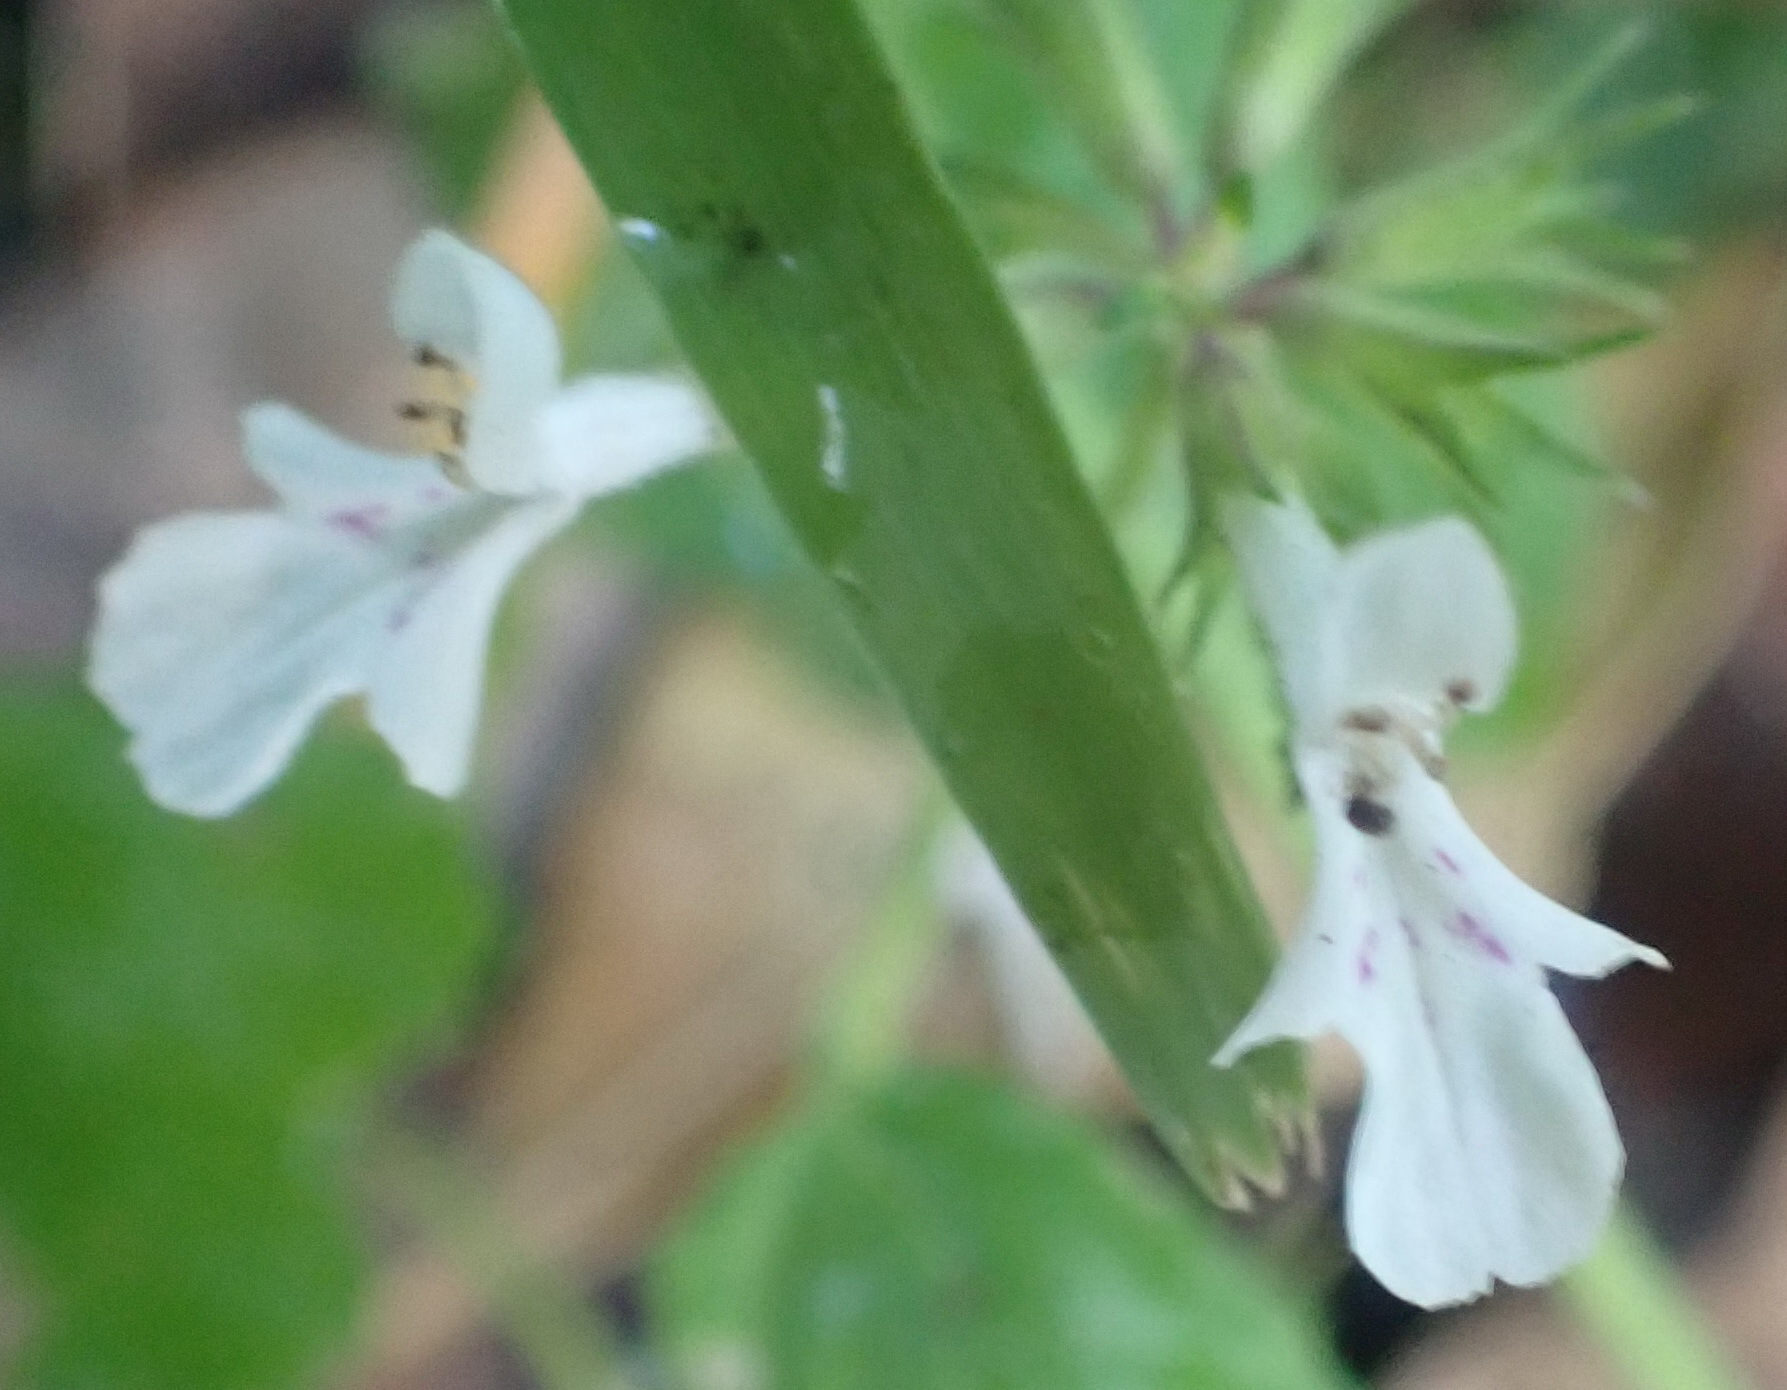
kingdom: Plantae
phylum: Tracheophyta
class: Magnoliopsida
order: Lamiales
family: Lamiaceae
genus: Stachys
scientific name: Stachys aethiopica
